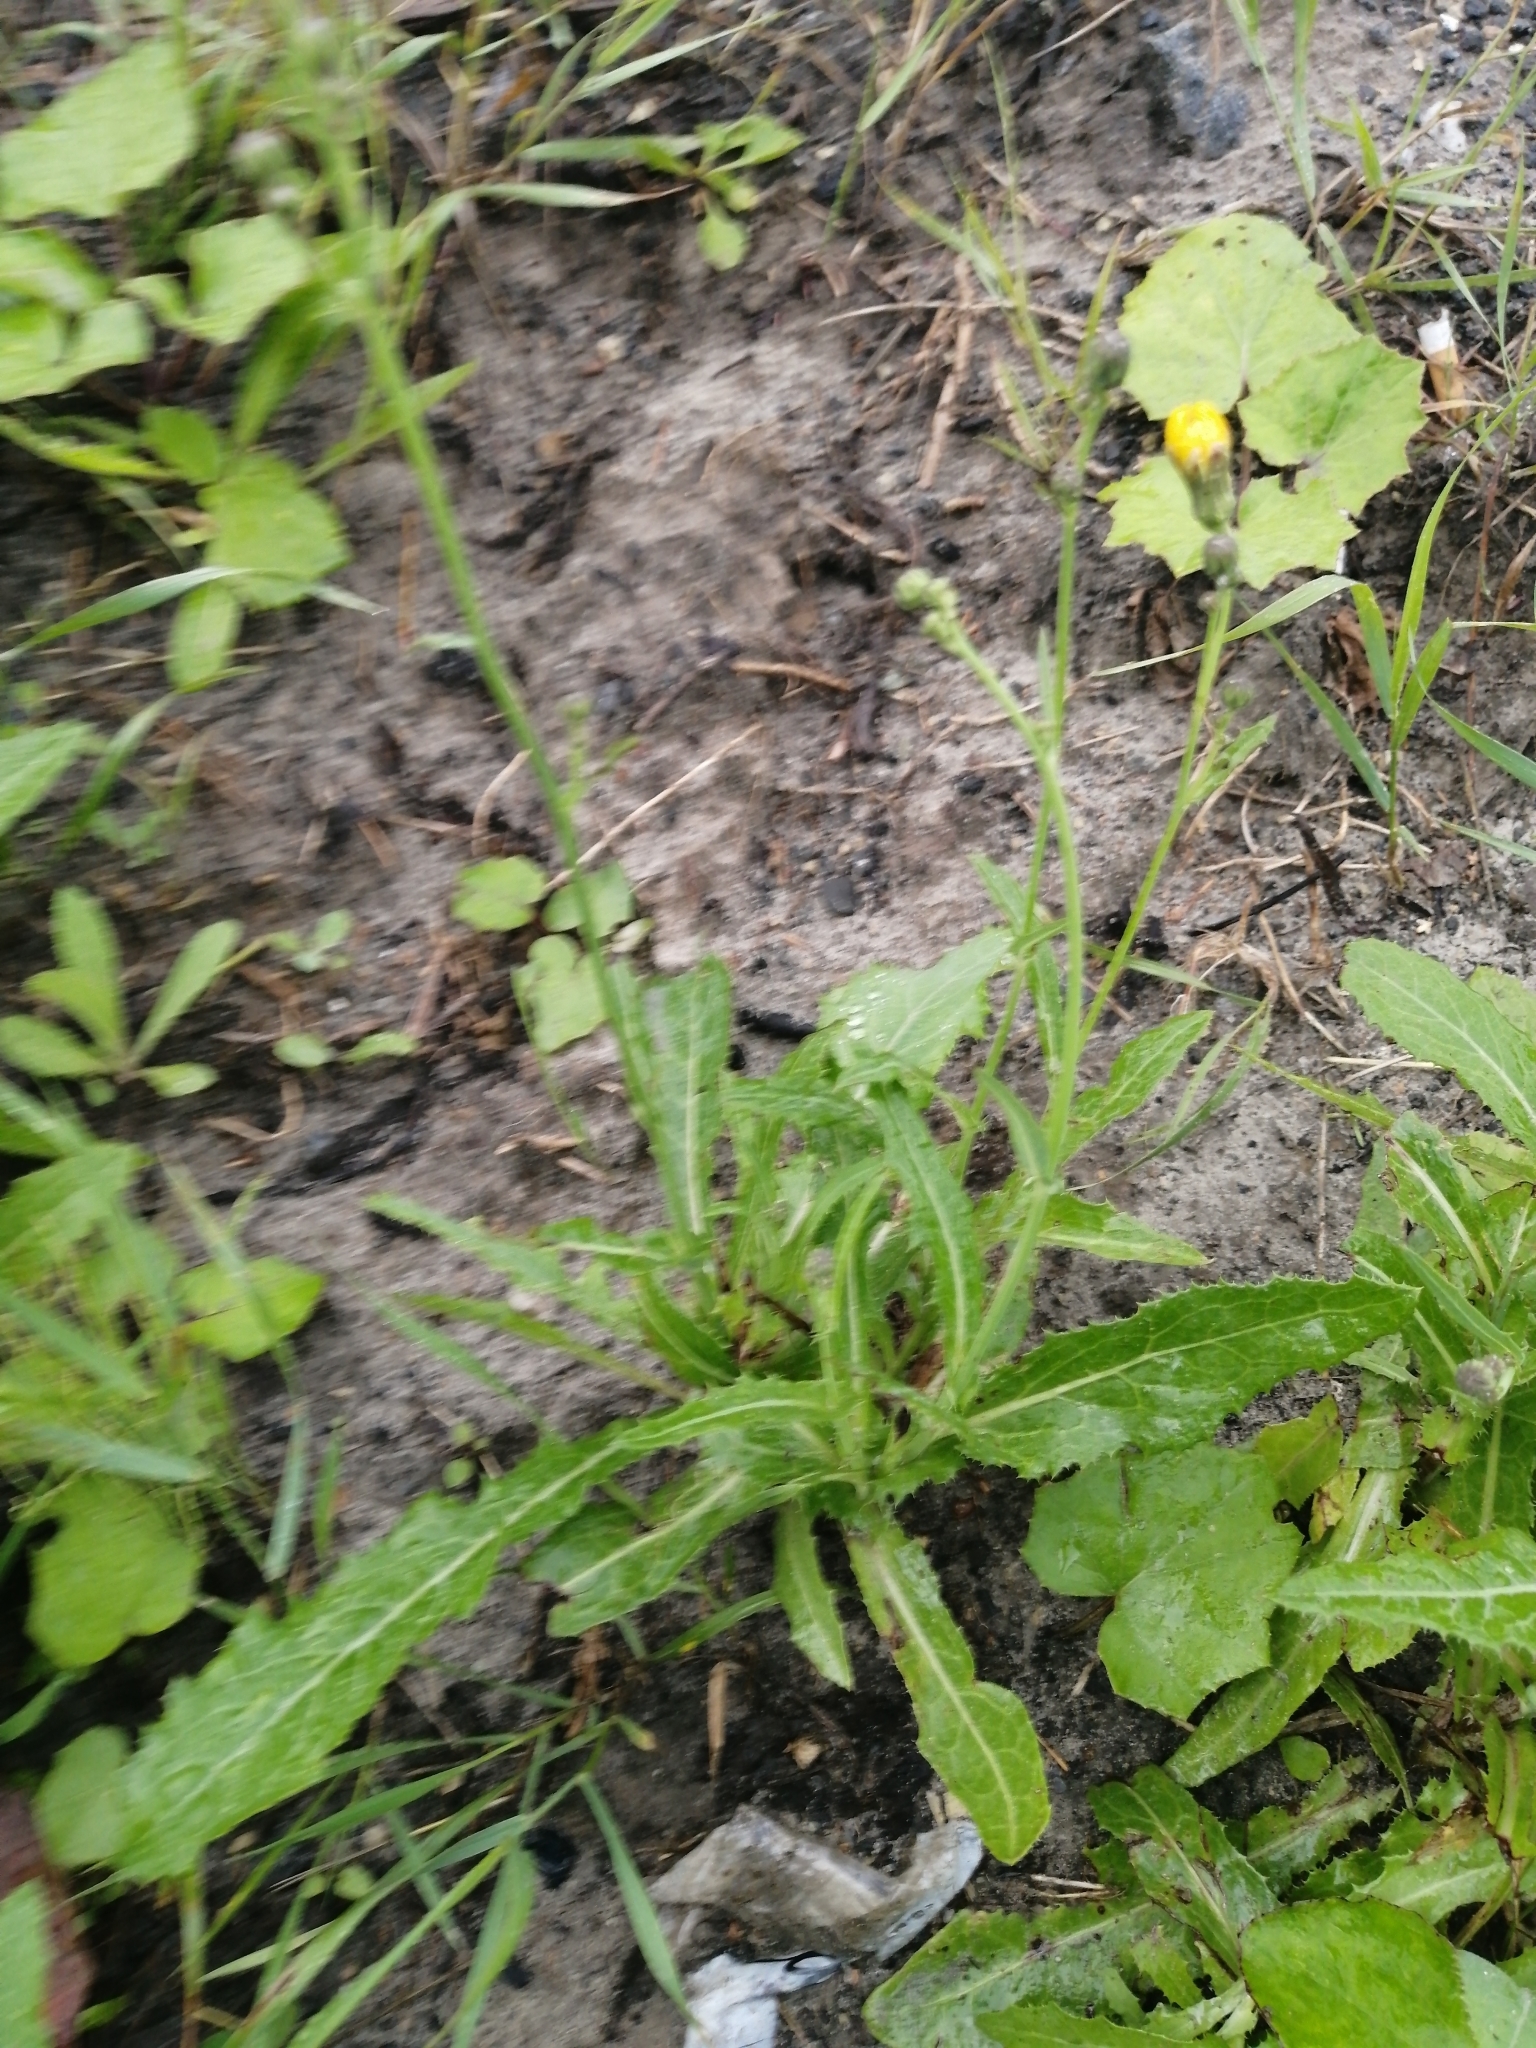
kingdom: Plantae
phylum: Tracheophyta
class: Magnoliopsida
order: Asterales
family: Asteraceae
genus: Sonchus
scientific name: Sonchus arvensis
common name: Perennial sow-thistle
